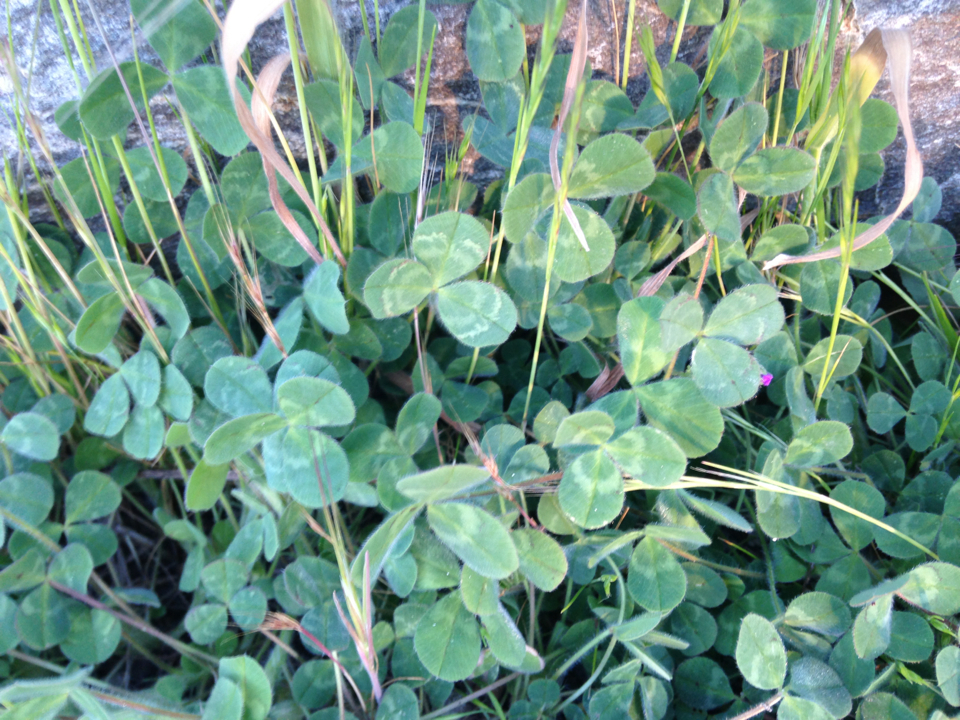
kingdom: Plantae
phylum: Tracheophyta
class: Magnoliopsida
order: Fabales
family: Fabaceae
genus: Trifolium
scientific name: Trifolium repens
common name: White clover
